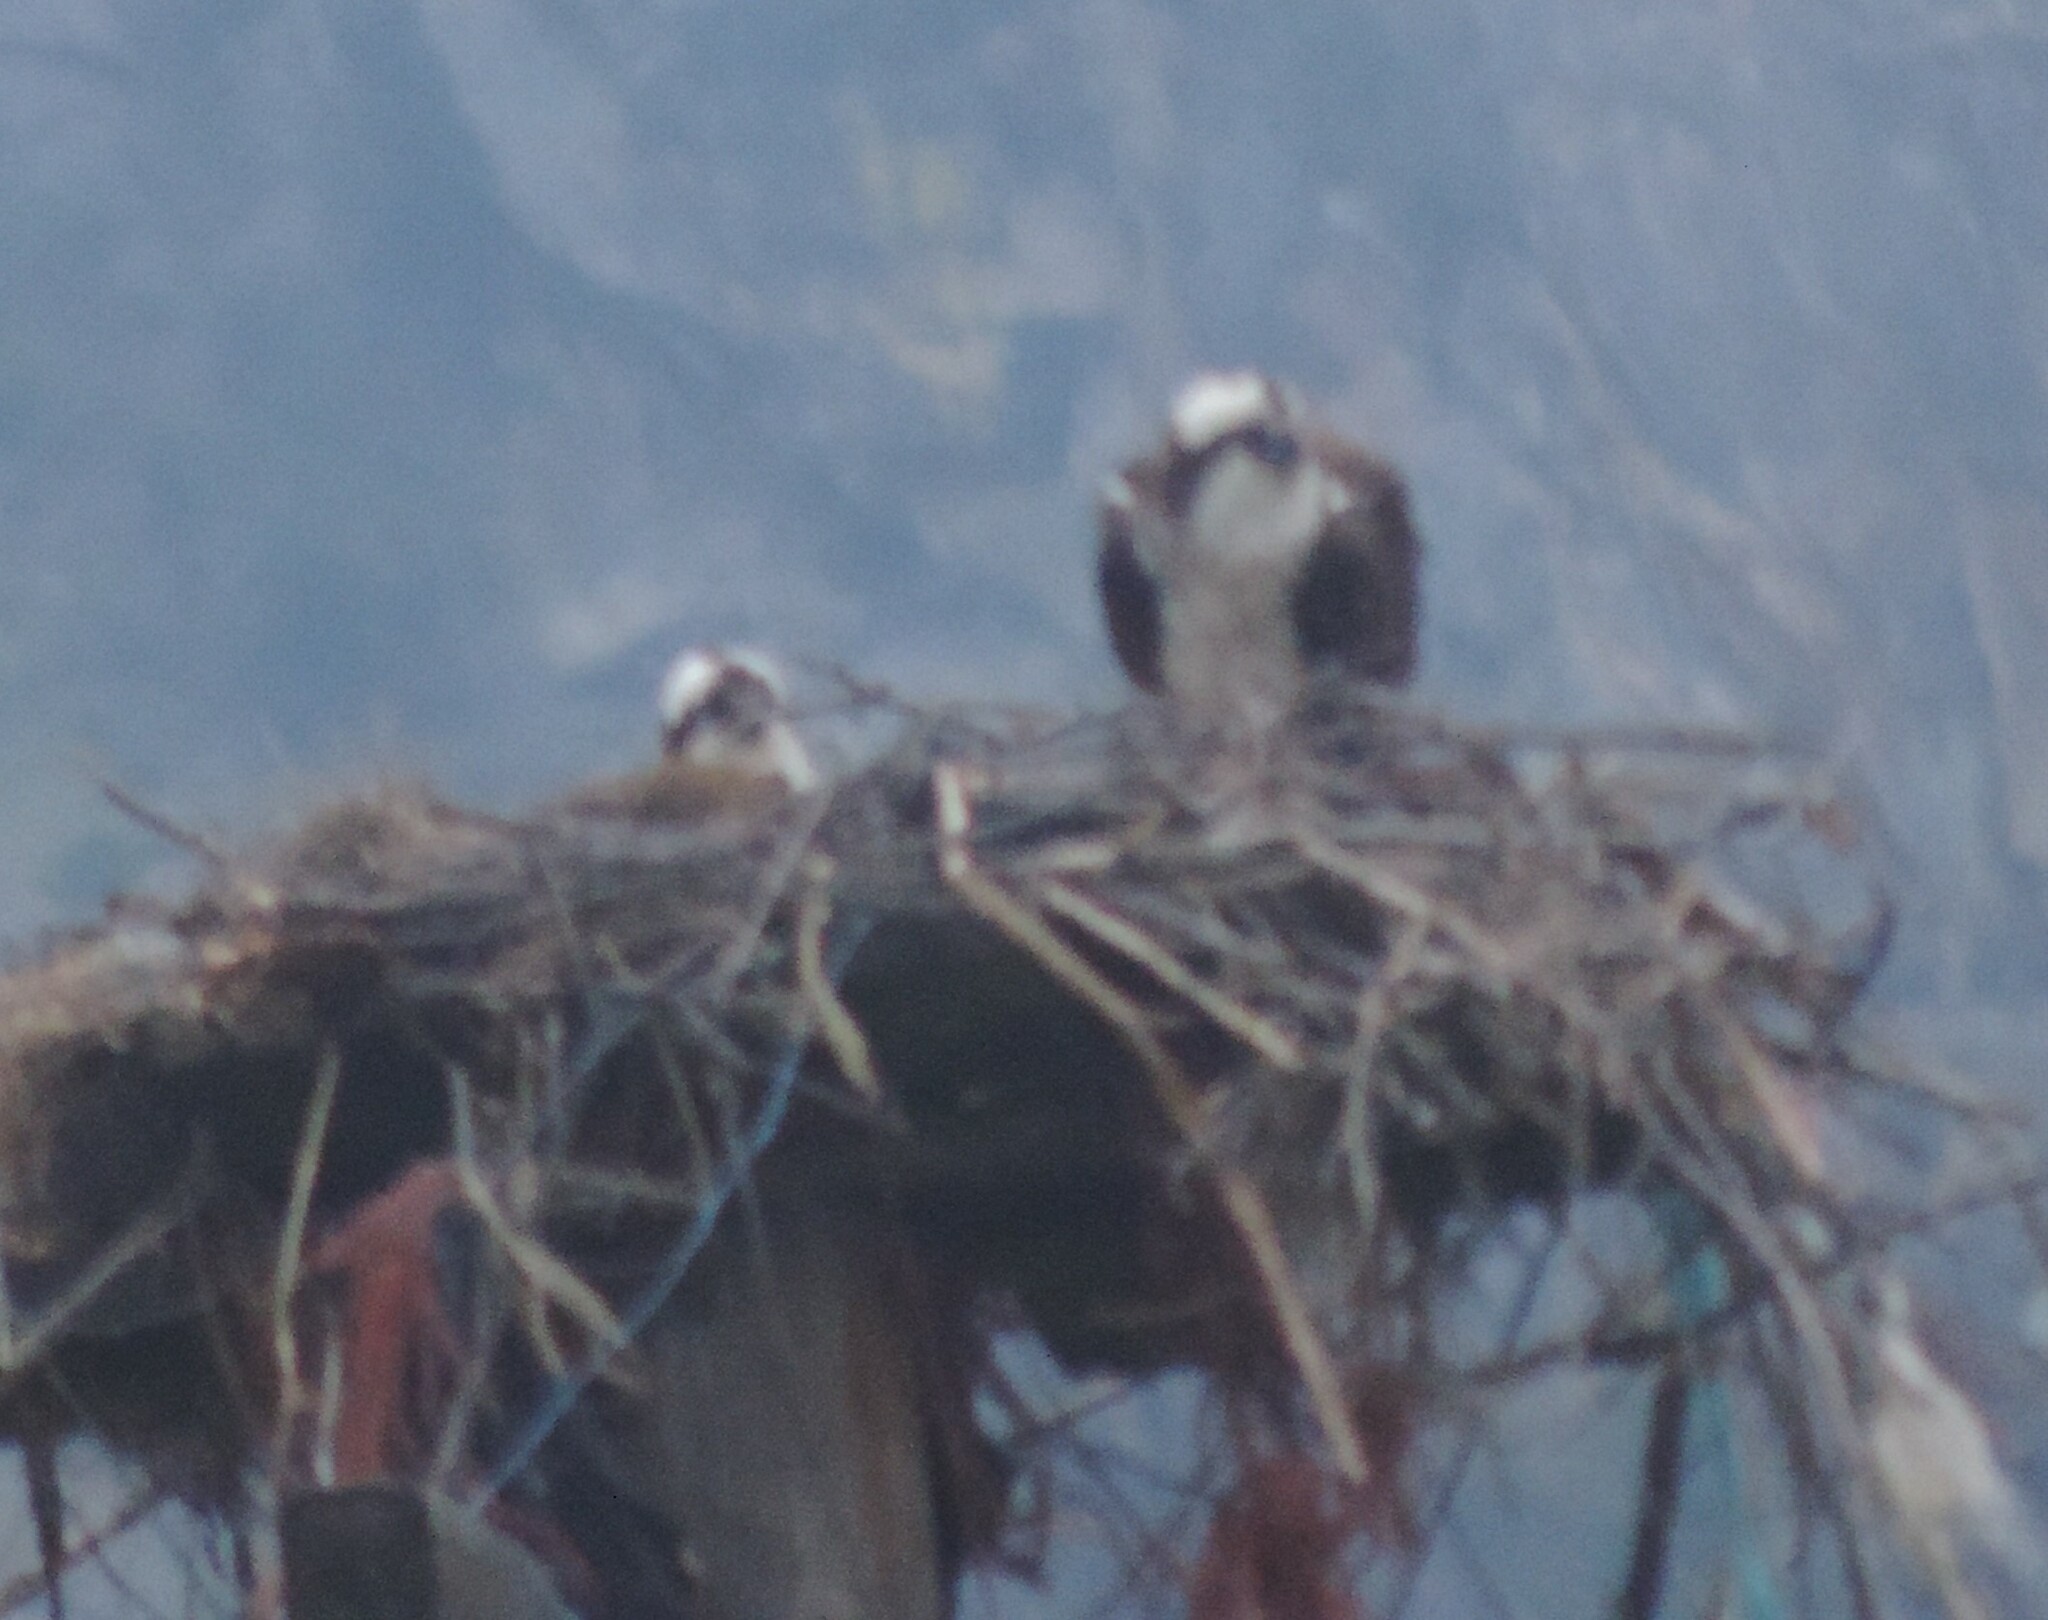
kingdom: Animalia
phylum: Chordata
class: Aves
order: Accipitriformes
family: Pandionidae
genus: Pandion
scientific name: Pandion haliaetus
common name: Osprey
